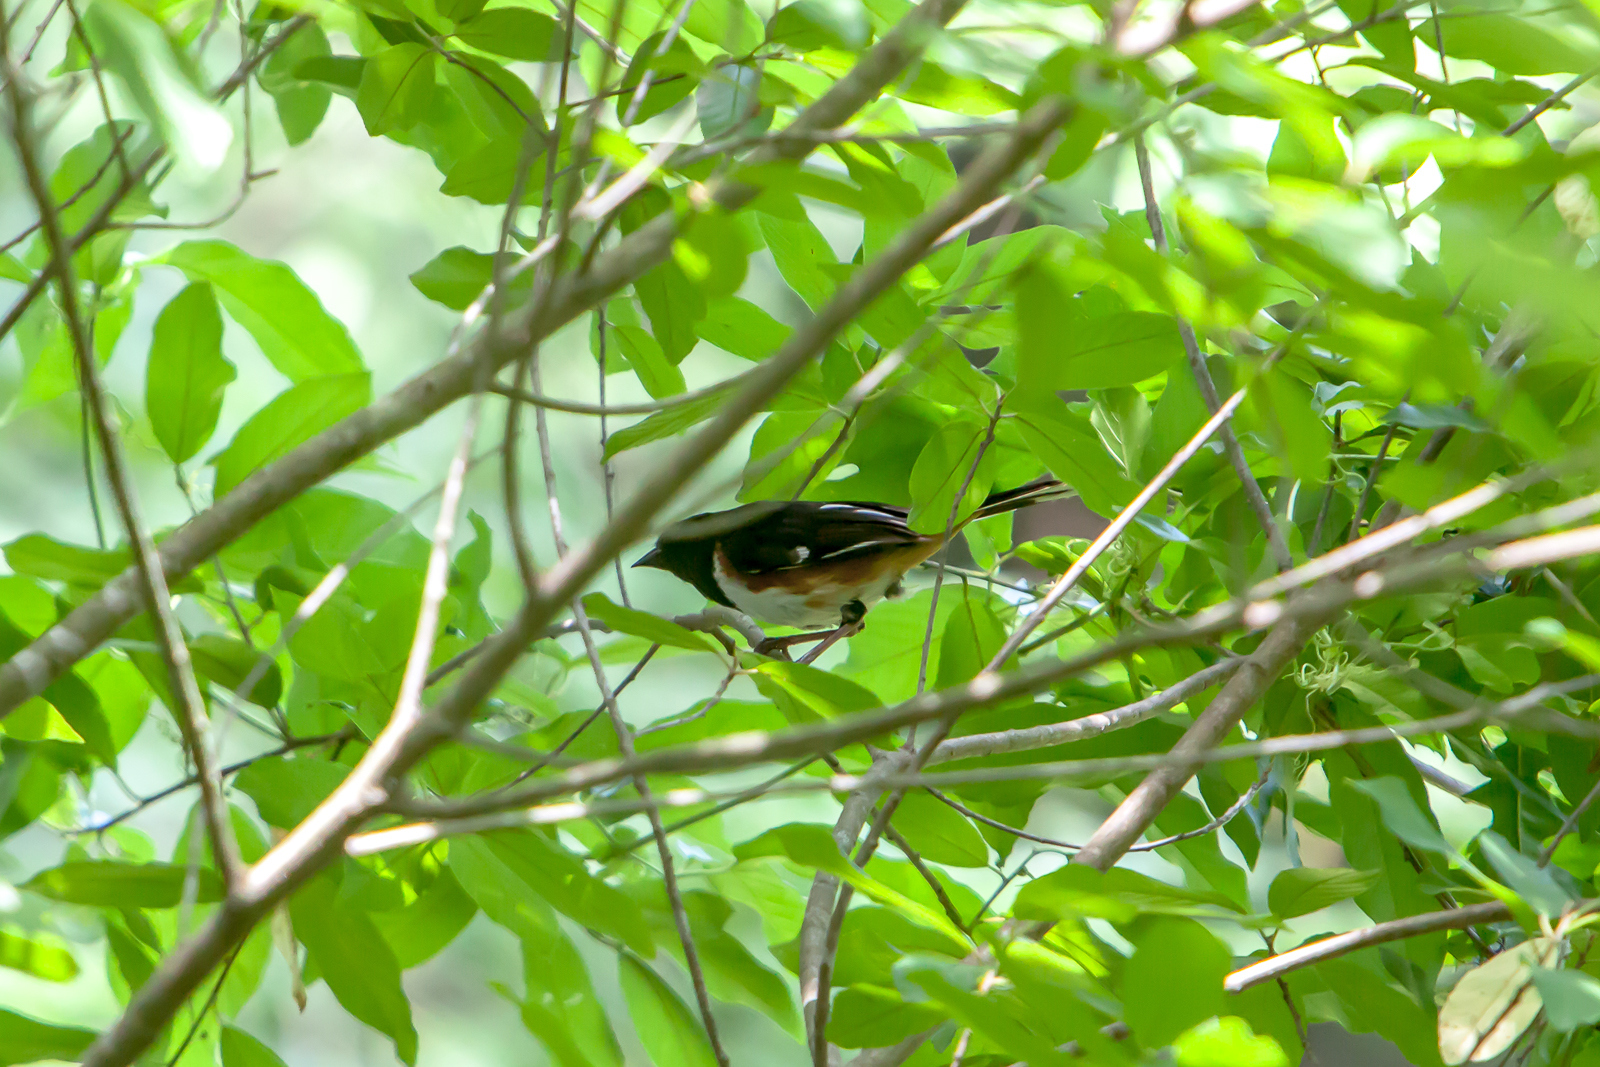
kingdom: Animalia
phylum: Chordata
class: Aves
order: Passeriformes
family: Passerellidae
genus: Pipilo
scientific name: Pipilo erythrophthalmus
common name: Eastern towhee
